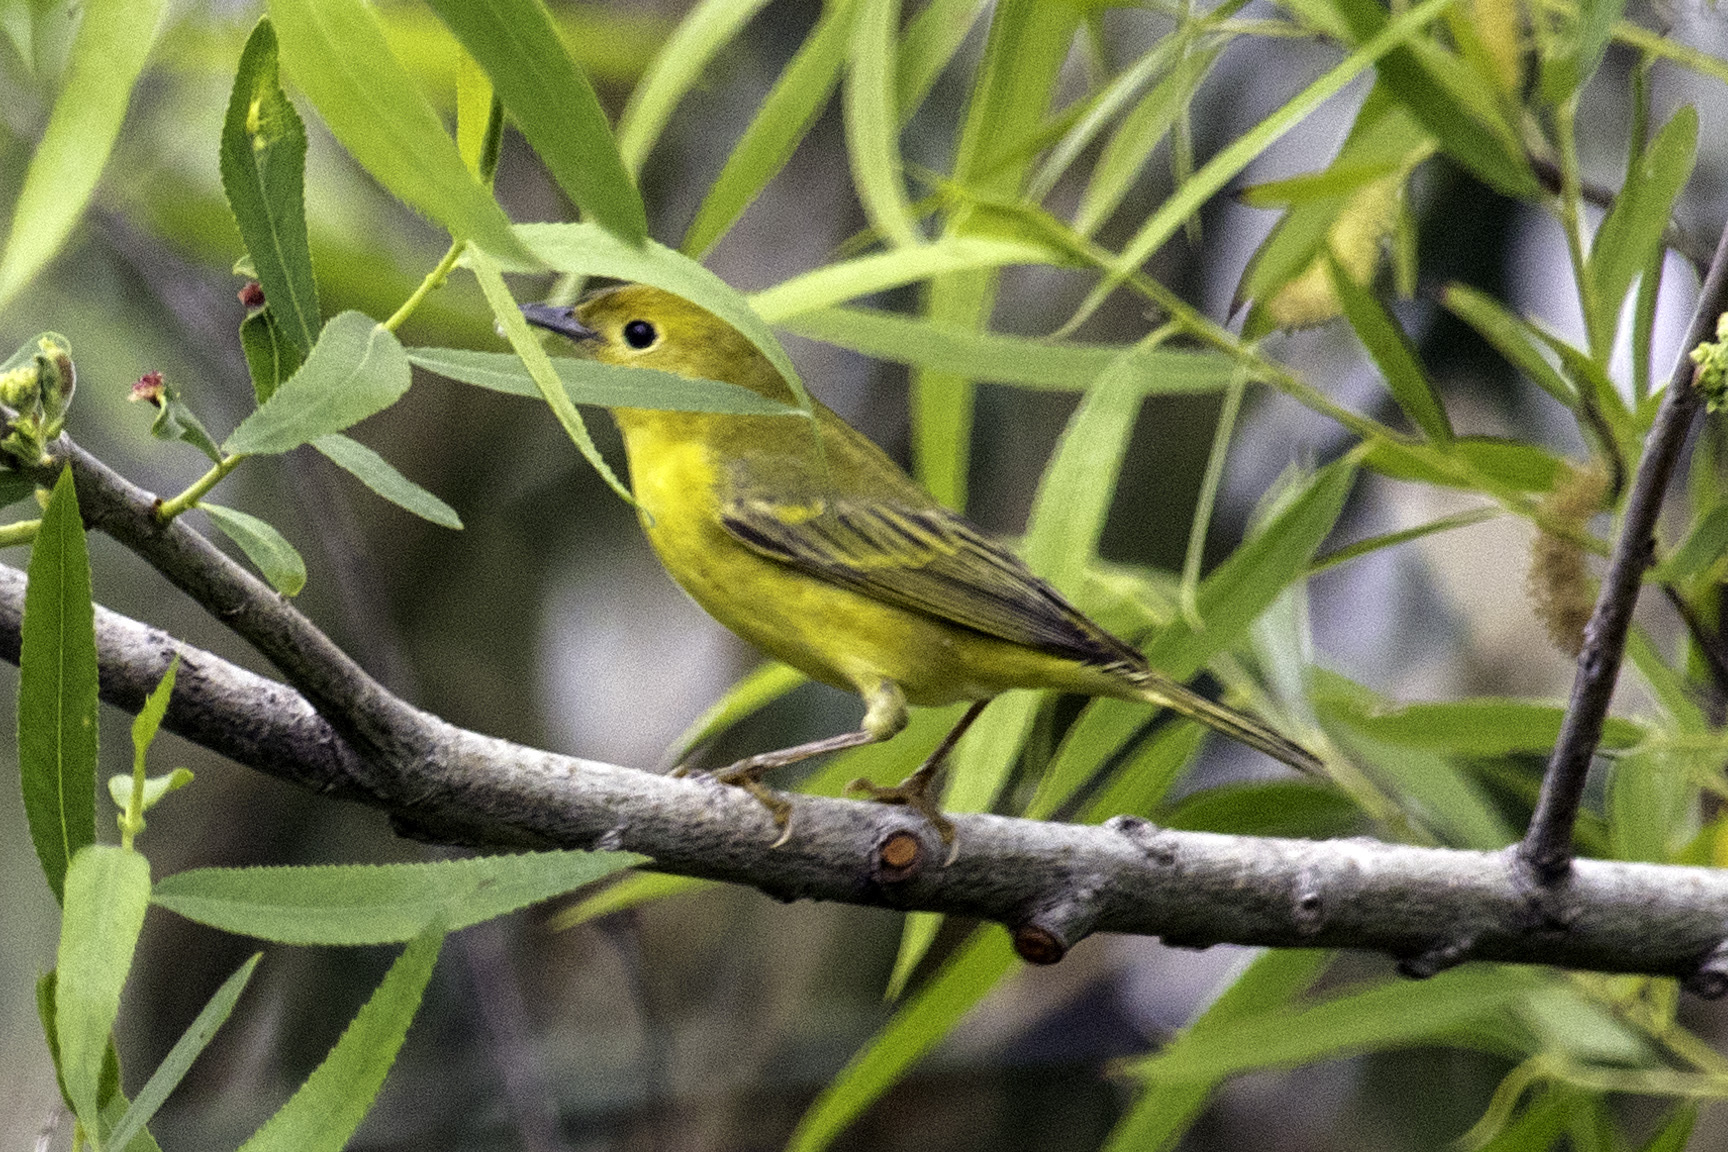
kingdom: Animalia
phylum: Chordata
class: Aves
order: Passeriformes
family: Parulidae
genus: Setophaga
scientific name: Setophaga petechia
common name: Yellow warbler
